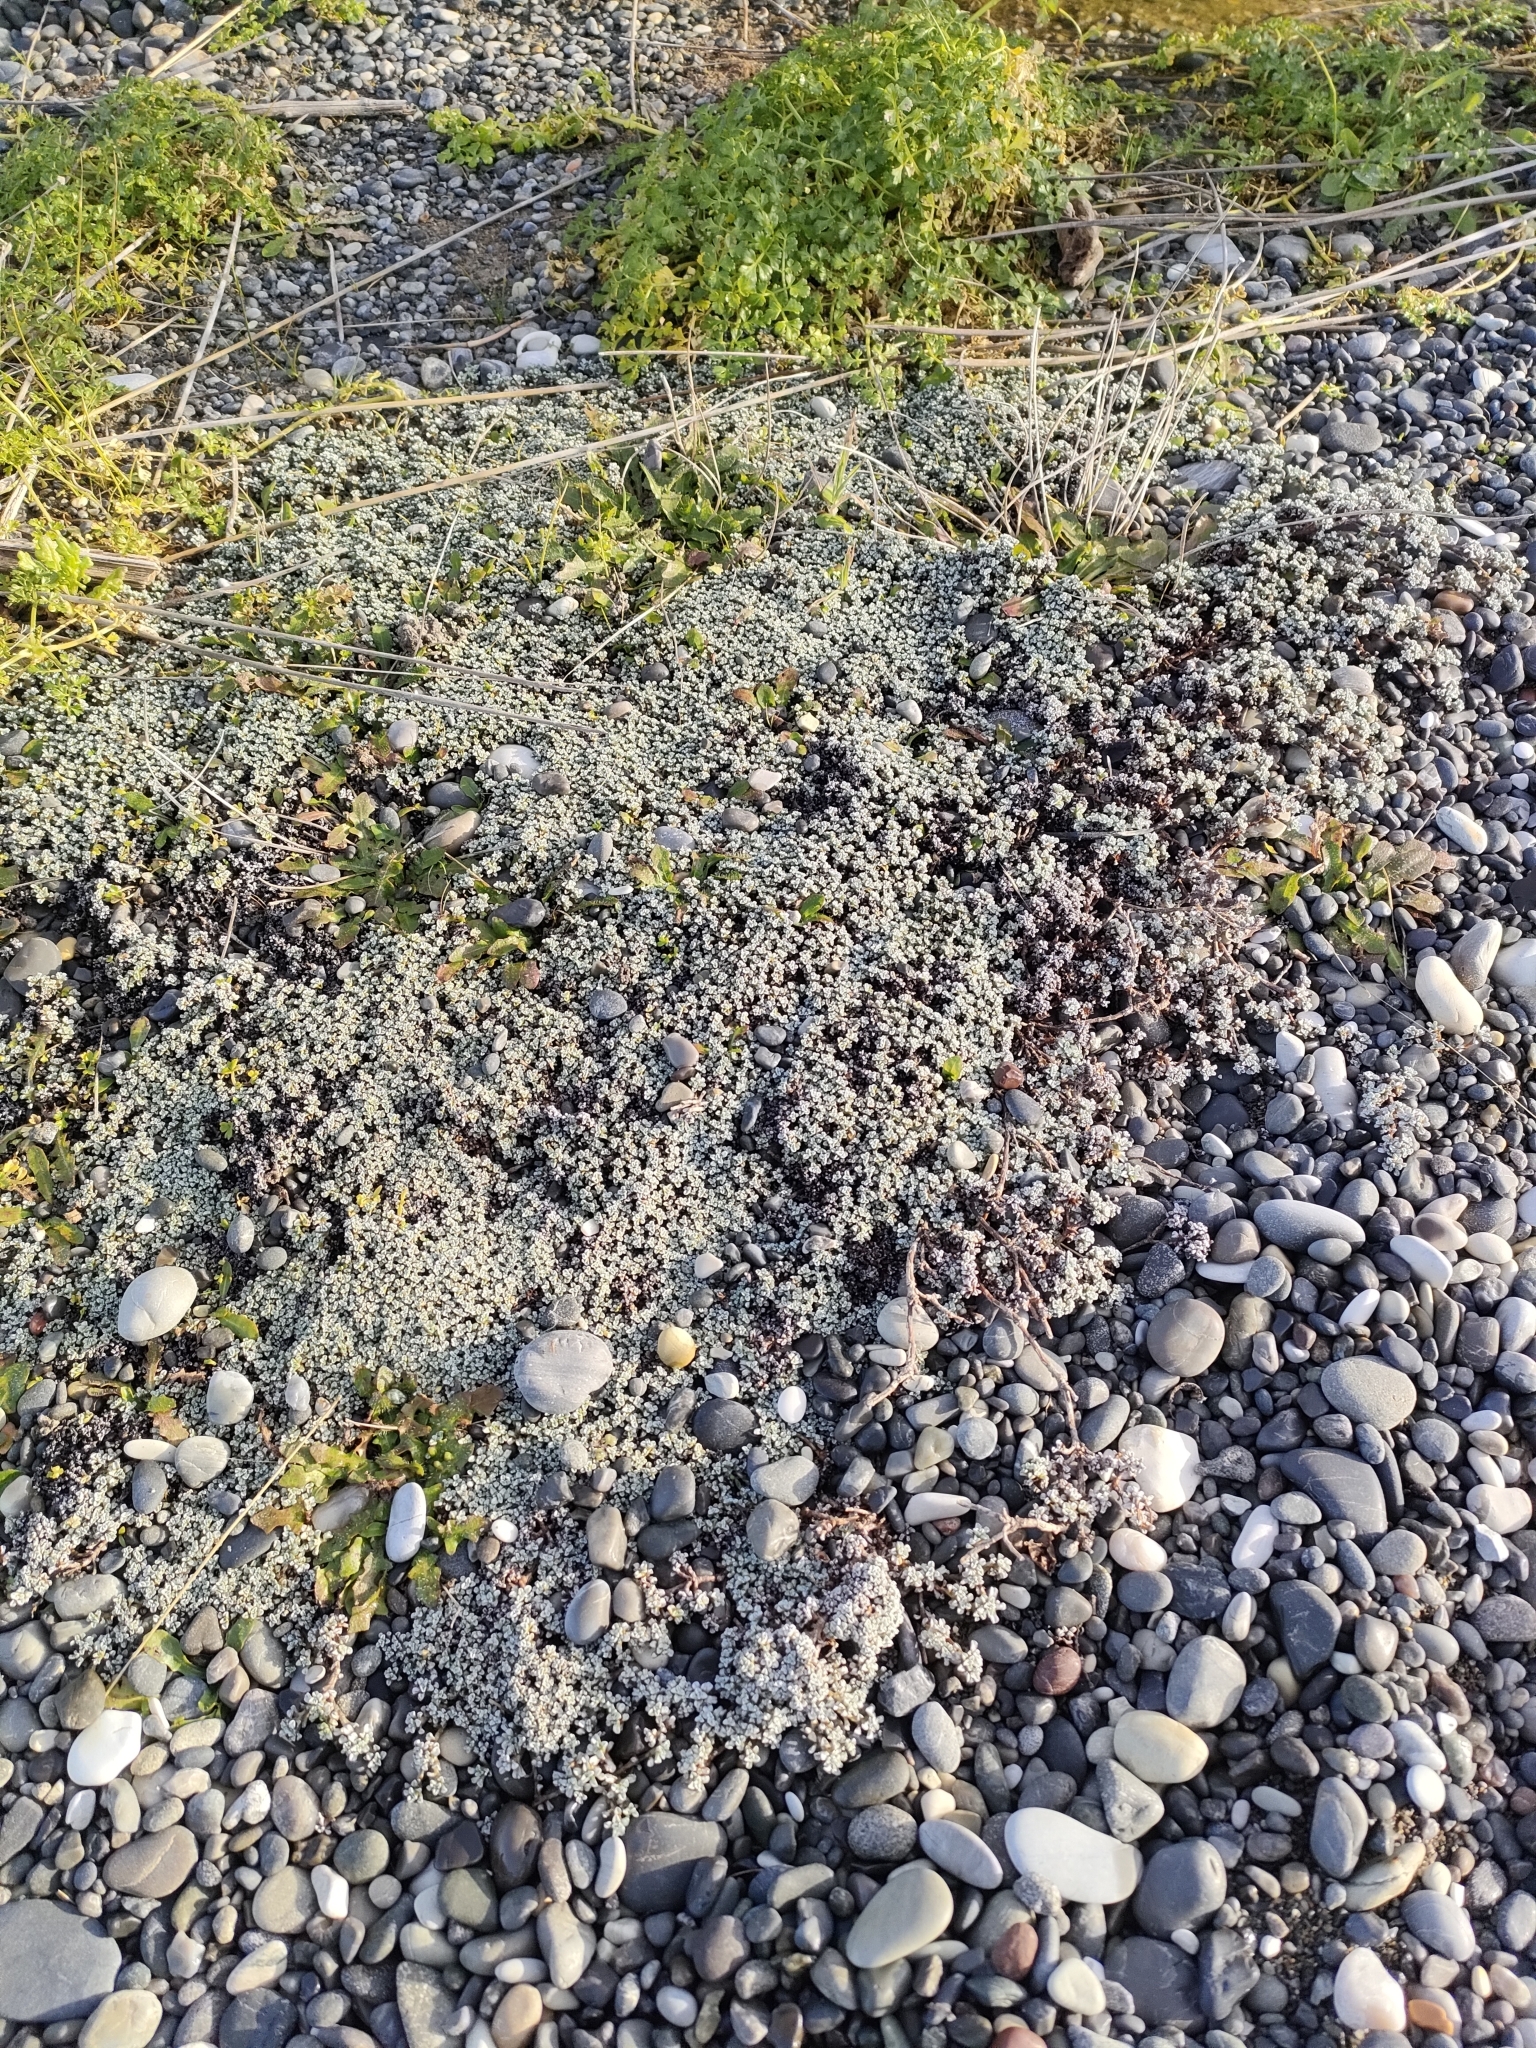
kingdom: Plantae
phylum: Tracheophyta
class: Magnoliopsida
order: Asterales
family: Asteraceae
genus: Raoulia
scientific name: Raoulia hookeri
